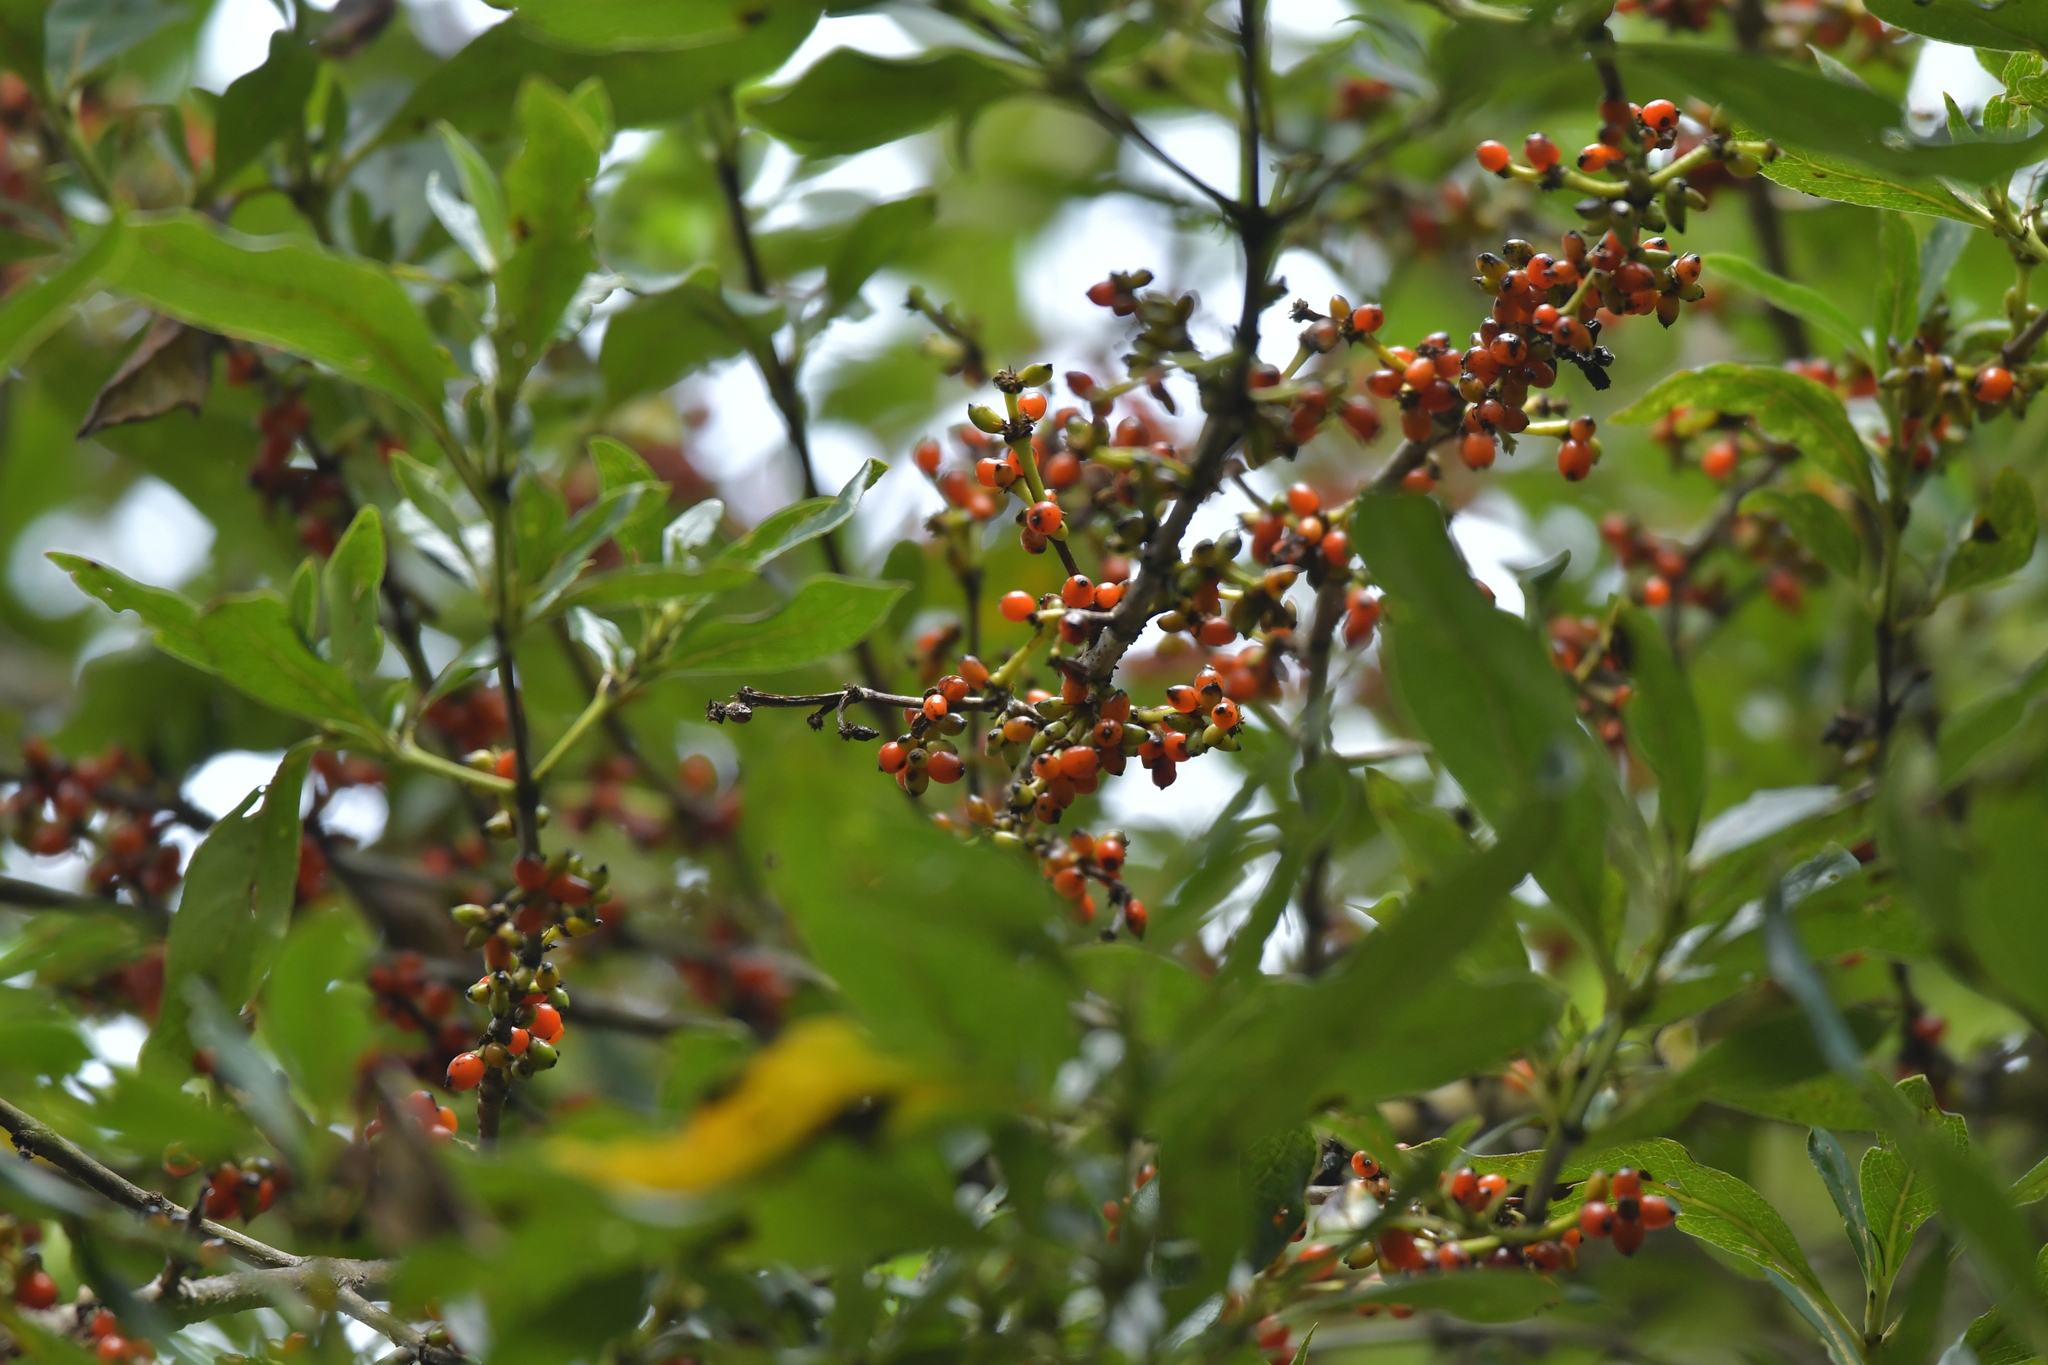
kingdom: Plantae
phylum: Tracheophyta
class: Magnoliopsida
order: Gentianales
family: Rubiaceae
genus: Coprosma
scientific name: Coprosma robusta
